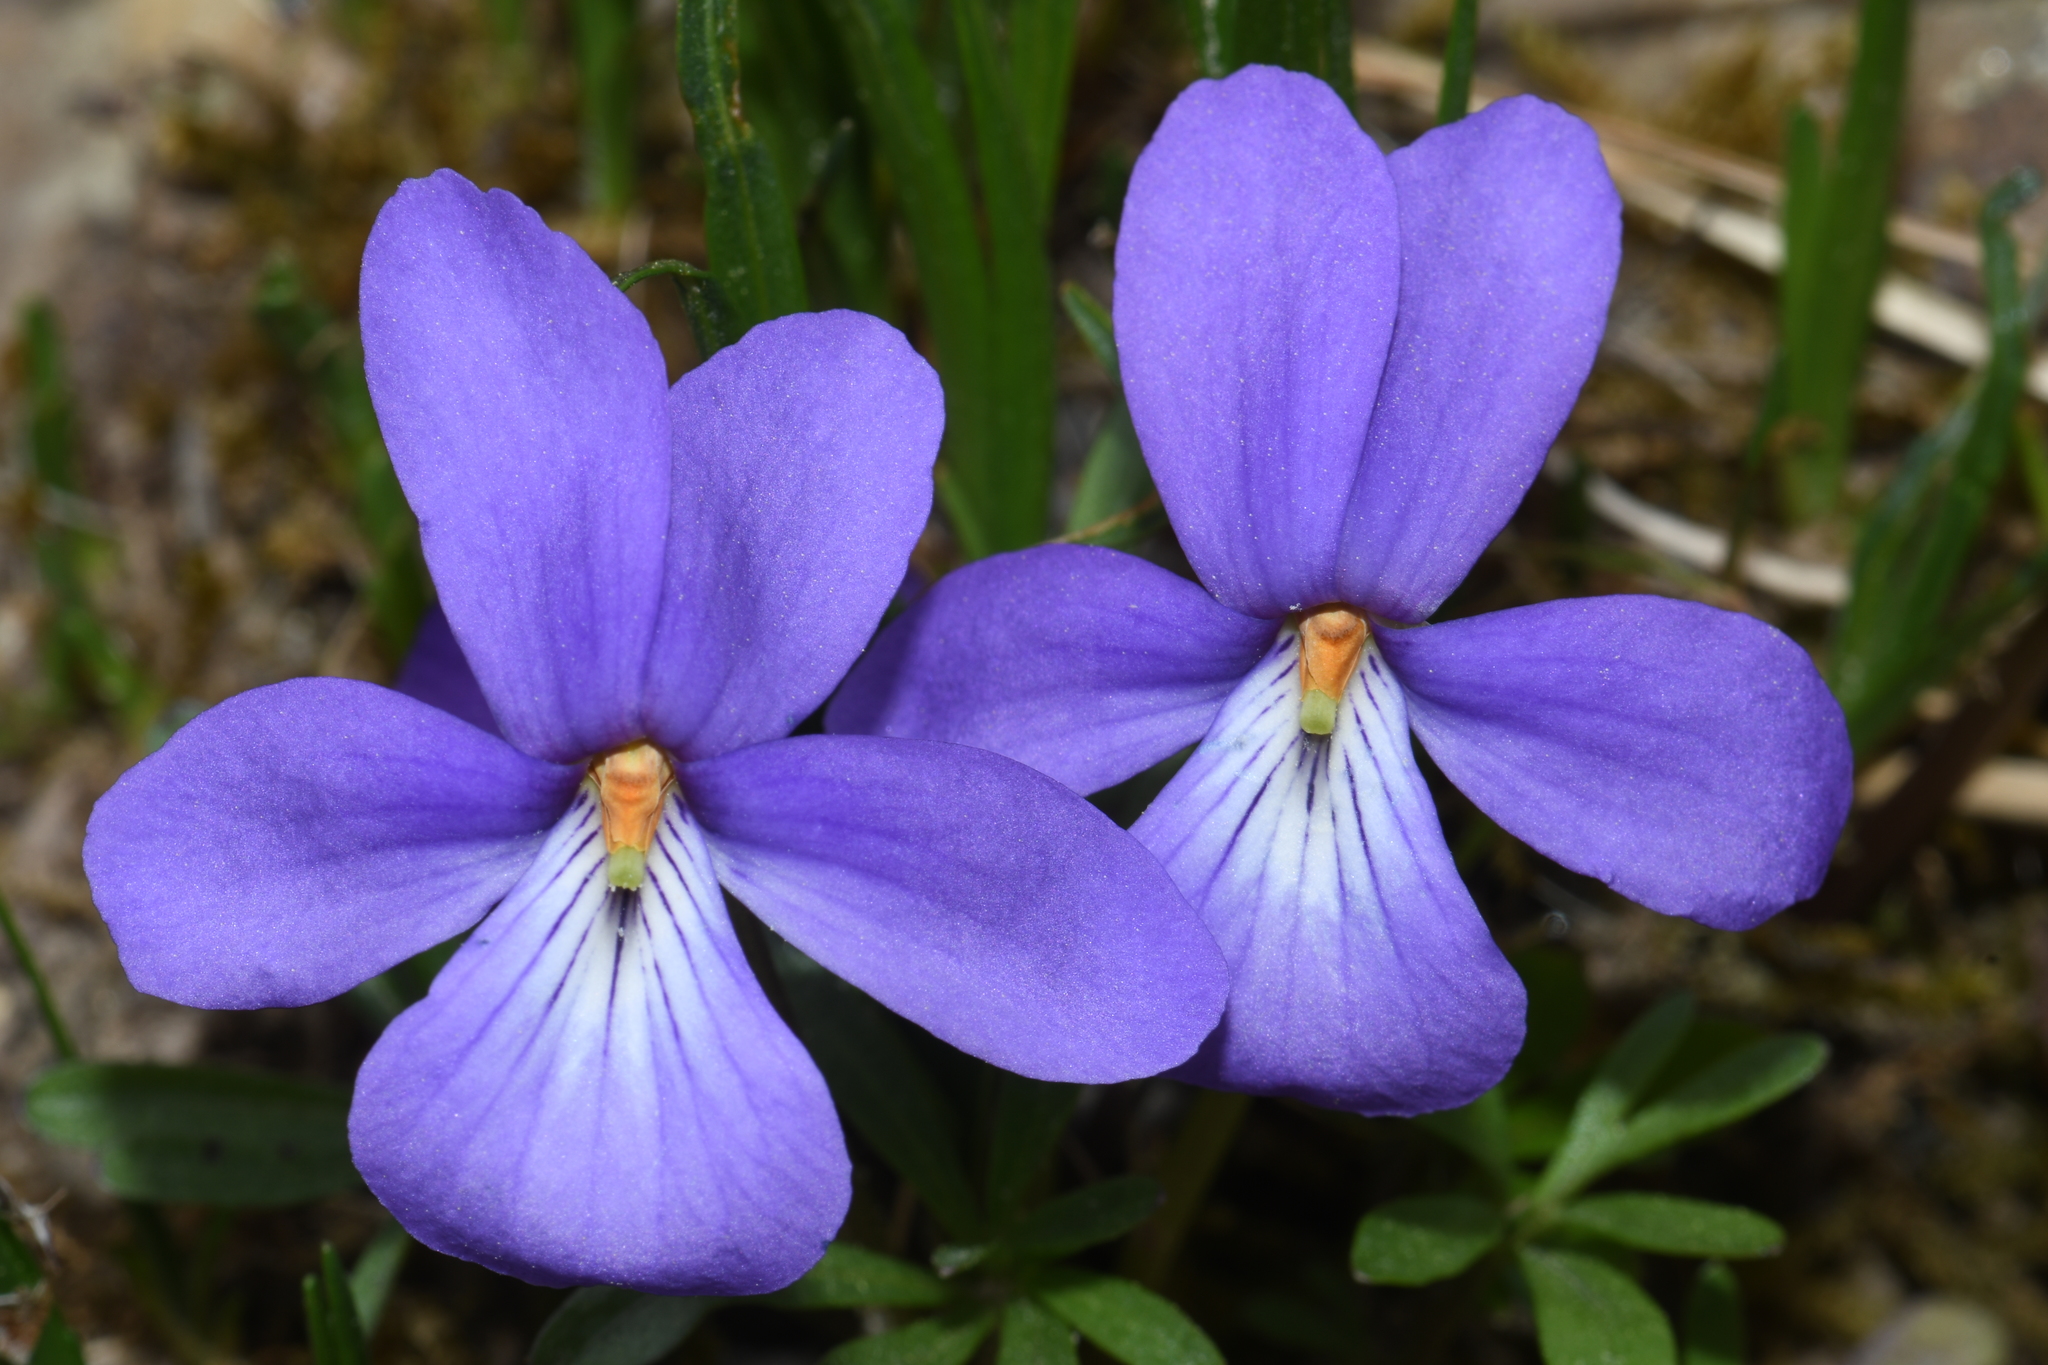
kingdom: Plantae
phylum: Tracheophyta
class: Magnoliopsida
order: Malpighiales
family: Violaceae
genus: Viola
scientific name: Viola pedata
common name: Pansy violet
